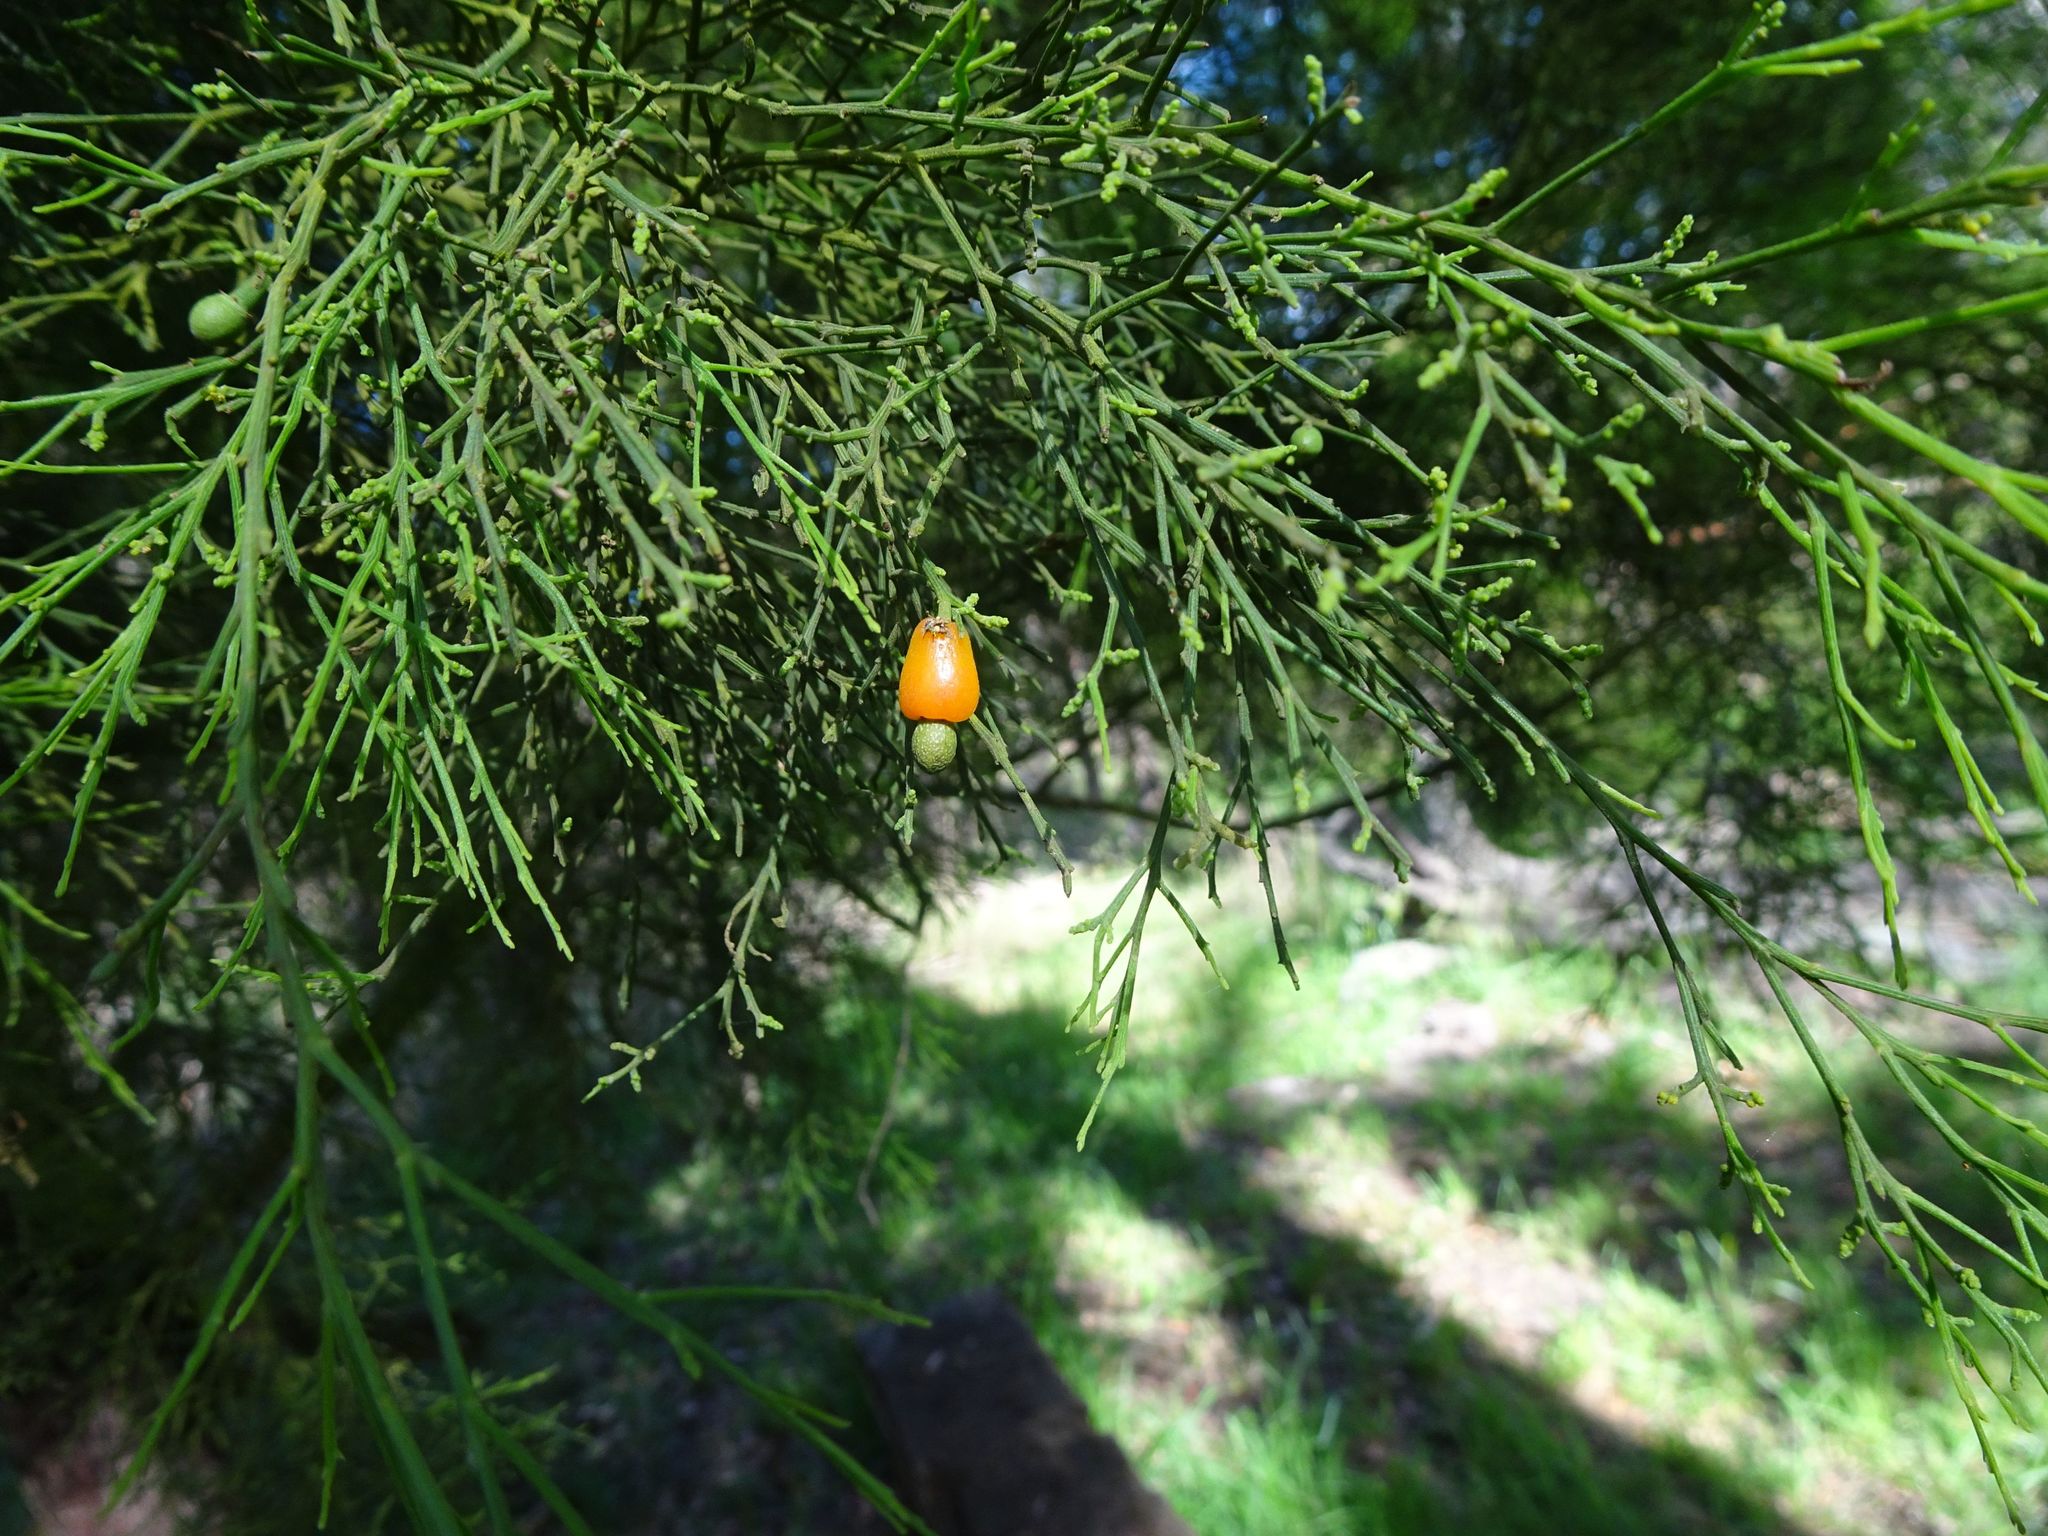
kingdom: Plantae
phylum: Tracheophyta
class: Magnoliopsida
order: Santalales
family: Santalaceae
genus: Exocarpos
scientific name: Exocarpos cupressiformis
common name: Cherry ballart
